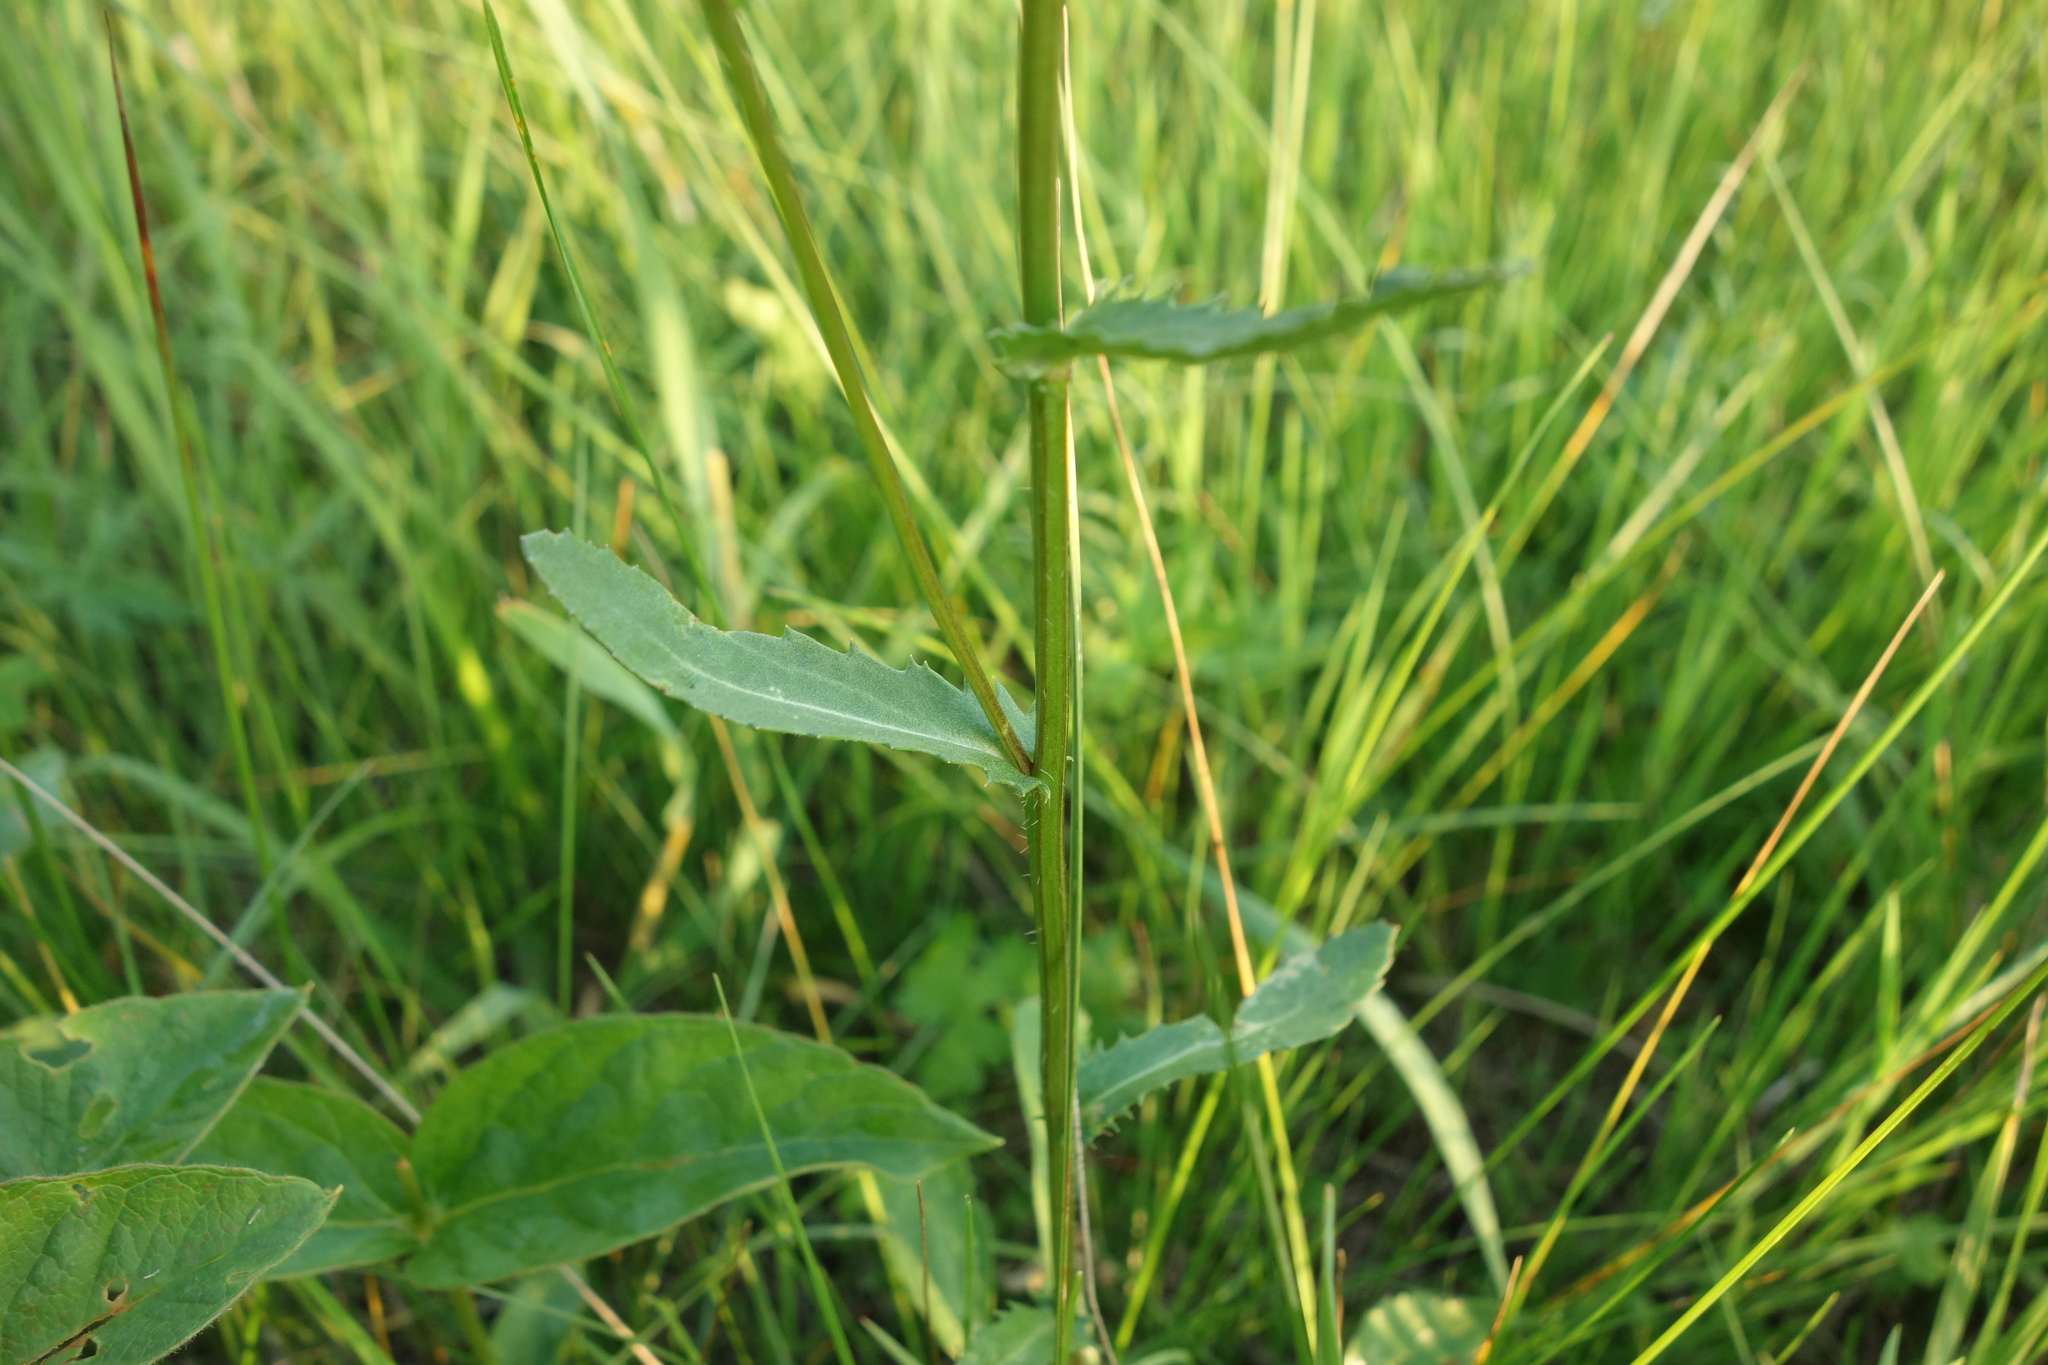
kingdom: Plantae
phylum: Tracheophyta
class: Magnoliopsida
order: Asterales
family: Asteraceae
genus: Leucanthemum
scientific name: Leucanthemum vulgare
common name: Oxeye daisy
